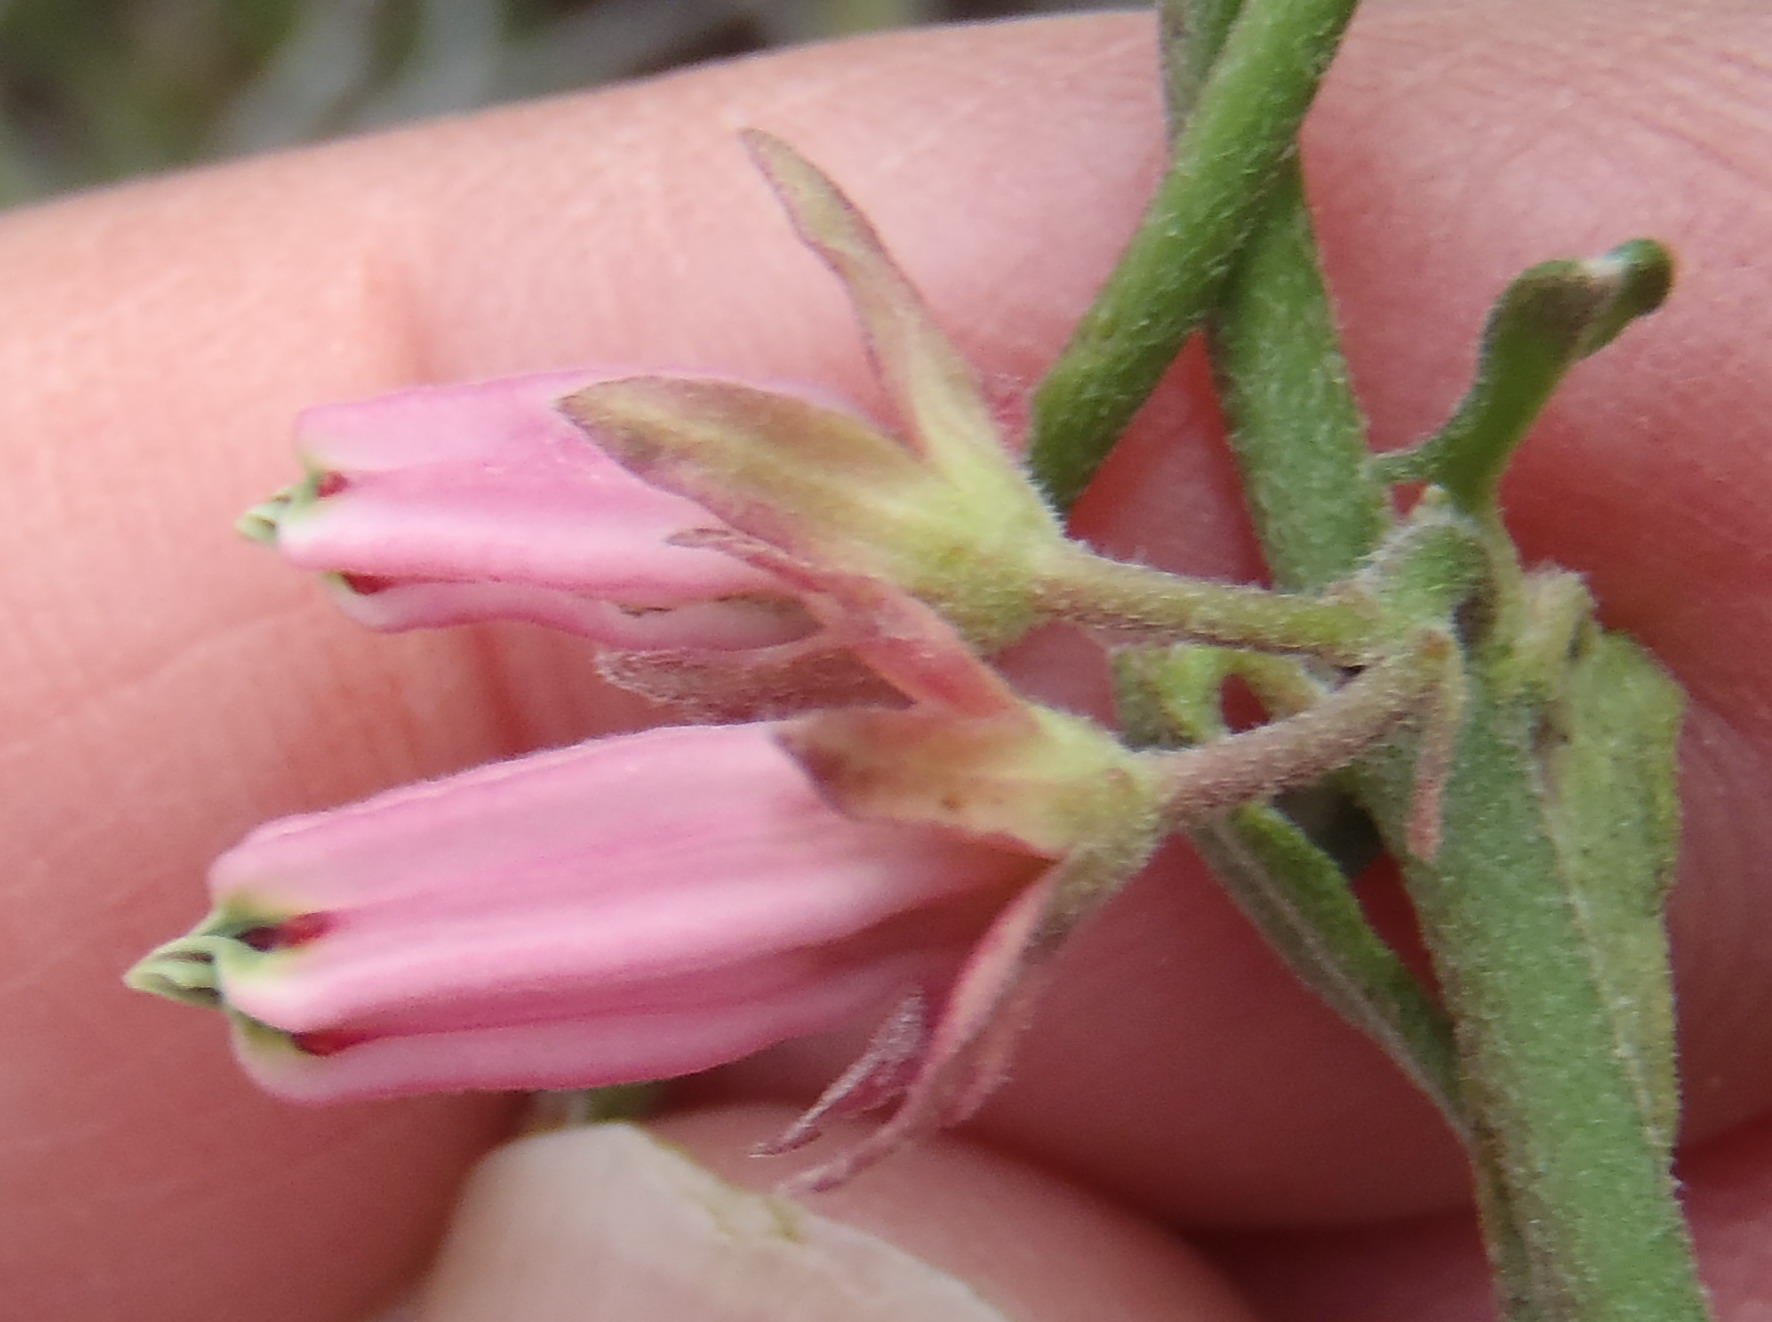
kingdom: Plantae
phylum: Tracheophyta
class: Magnoliopsida
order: Gentianales
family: Apocynaceae
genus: Microloma
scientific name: Microloma sagittatum
